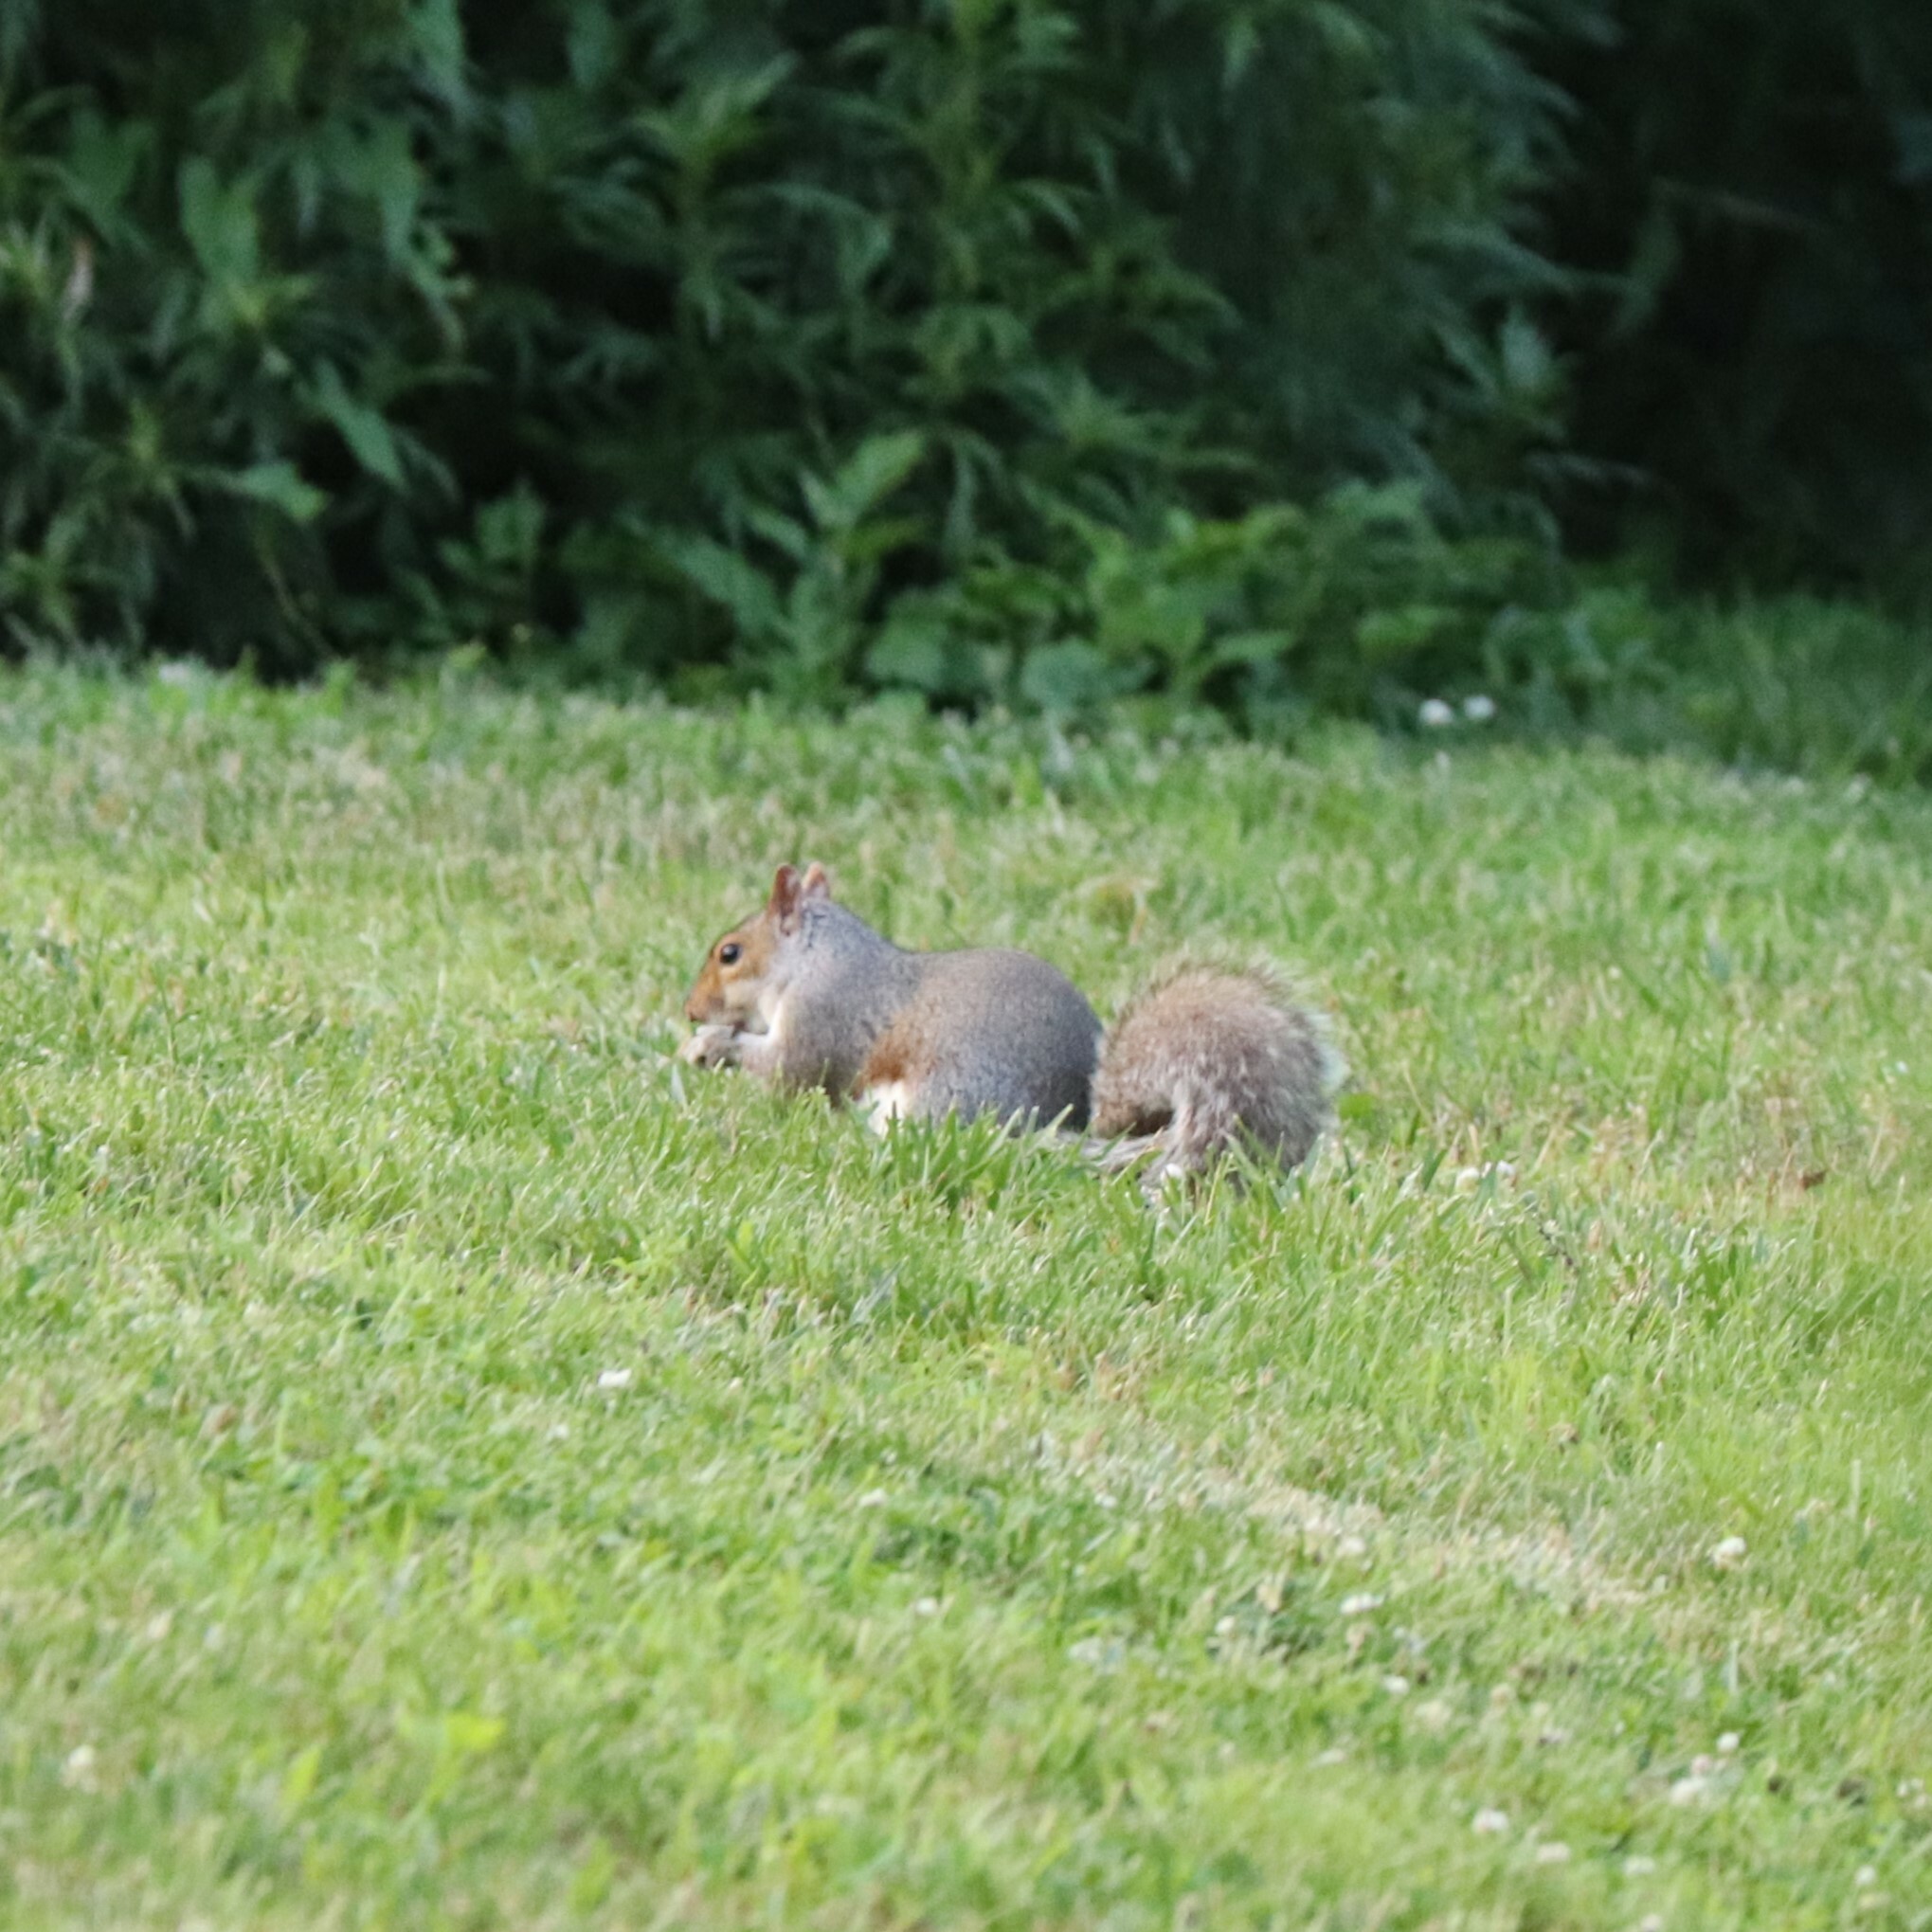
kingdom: Animalia
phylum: Chordata
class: Mammalia
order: Rodentia
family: Sciuridae
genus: Sciurus
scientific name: Sciurus carolinensis
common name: Eastern gray squirrel
